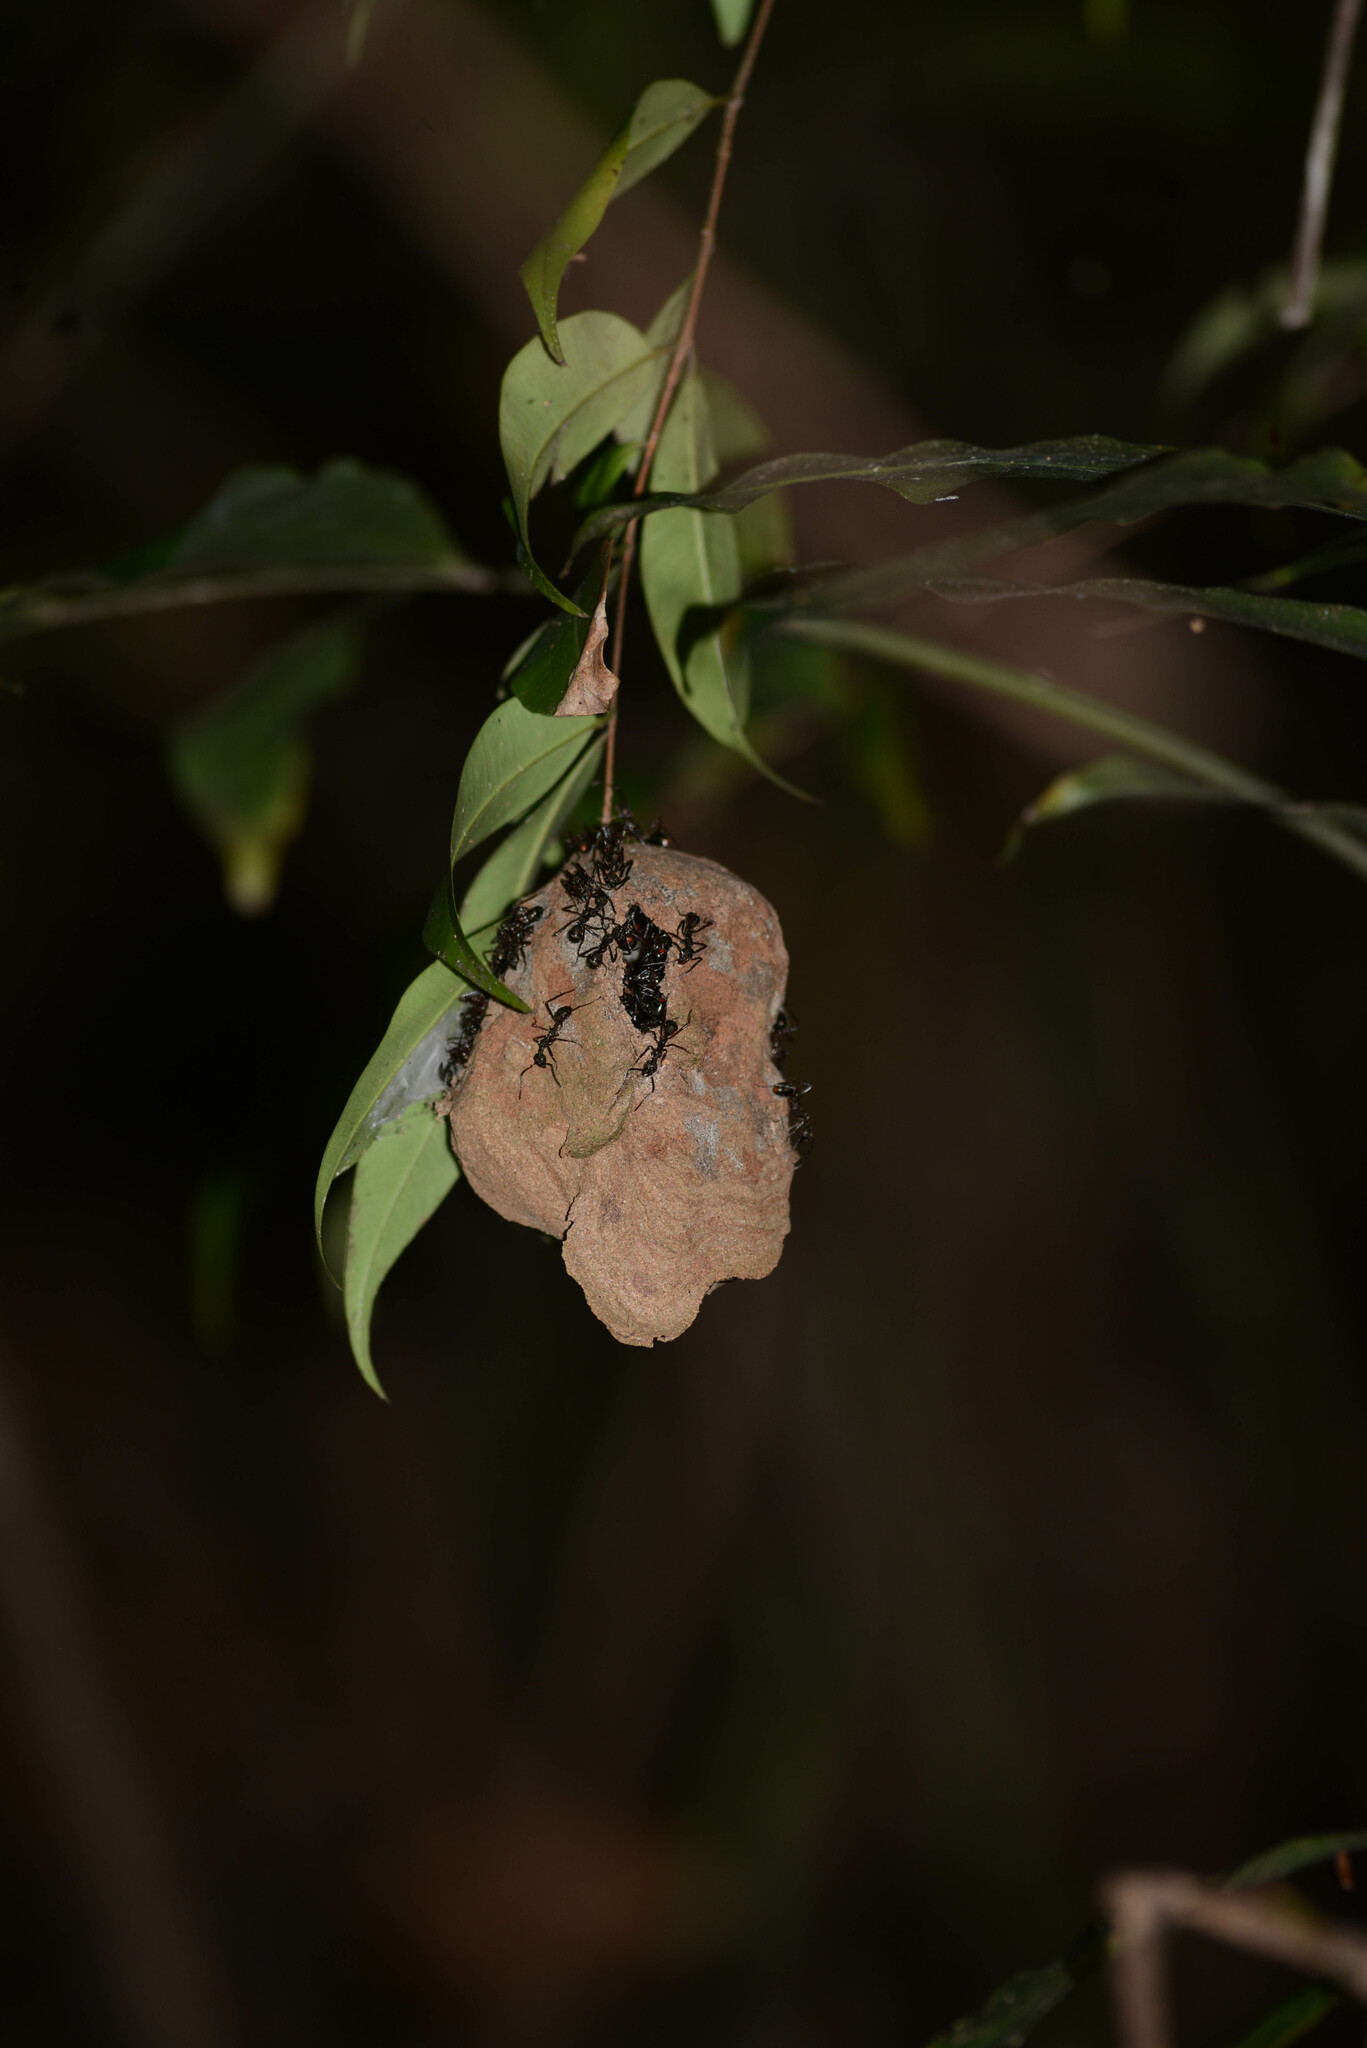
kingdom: Animalia
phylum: Arthropoda
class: Insecta
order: Hymenoptera
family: Formicidae
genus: Dolichoderus
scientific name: Dolichoderus attelaboides
